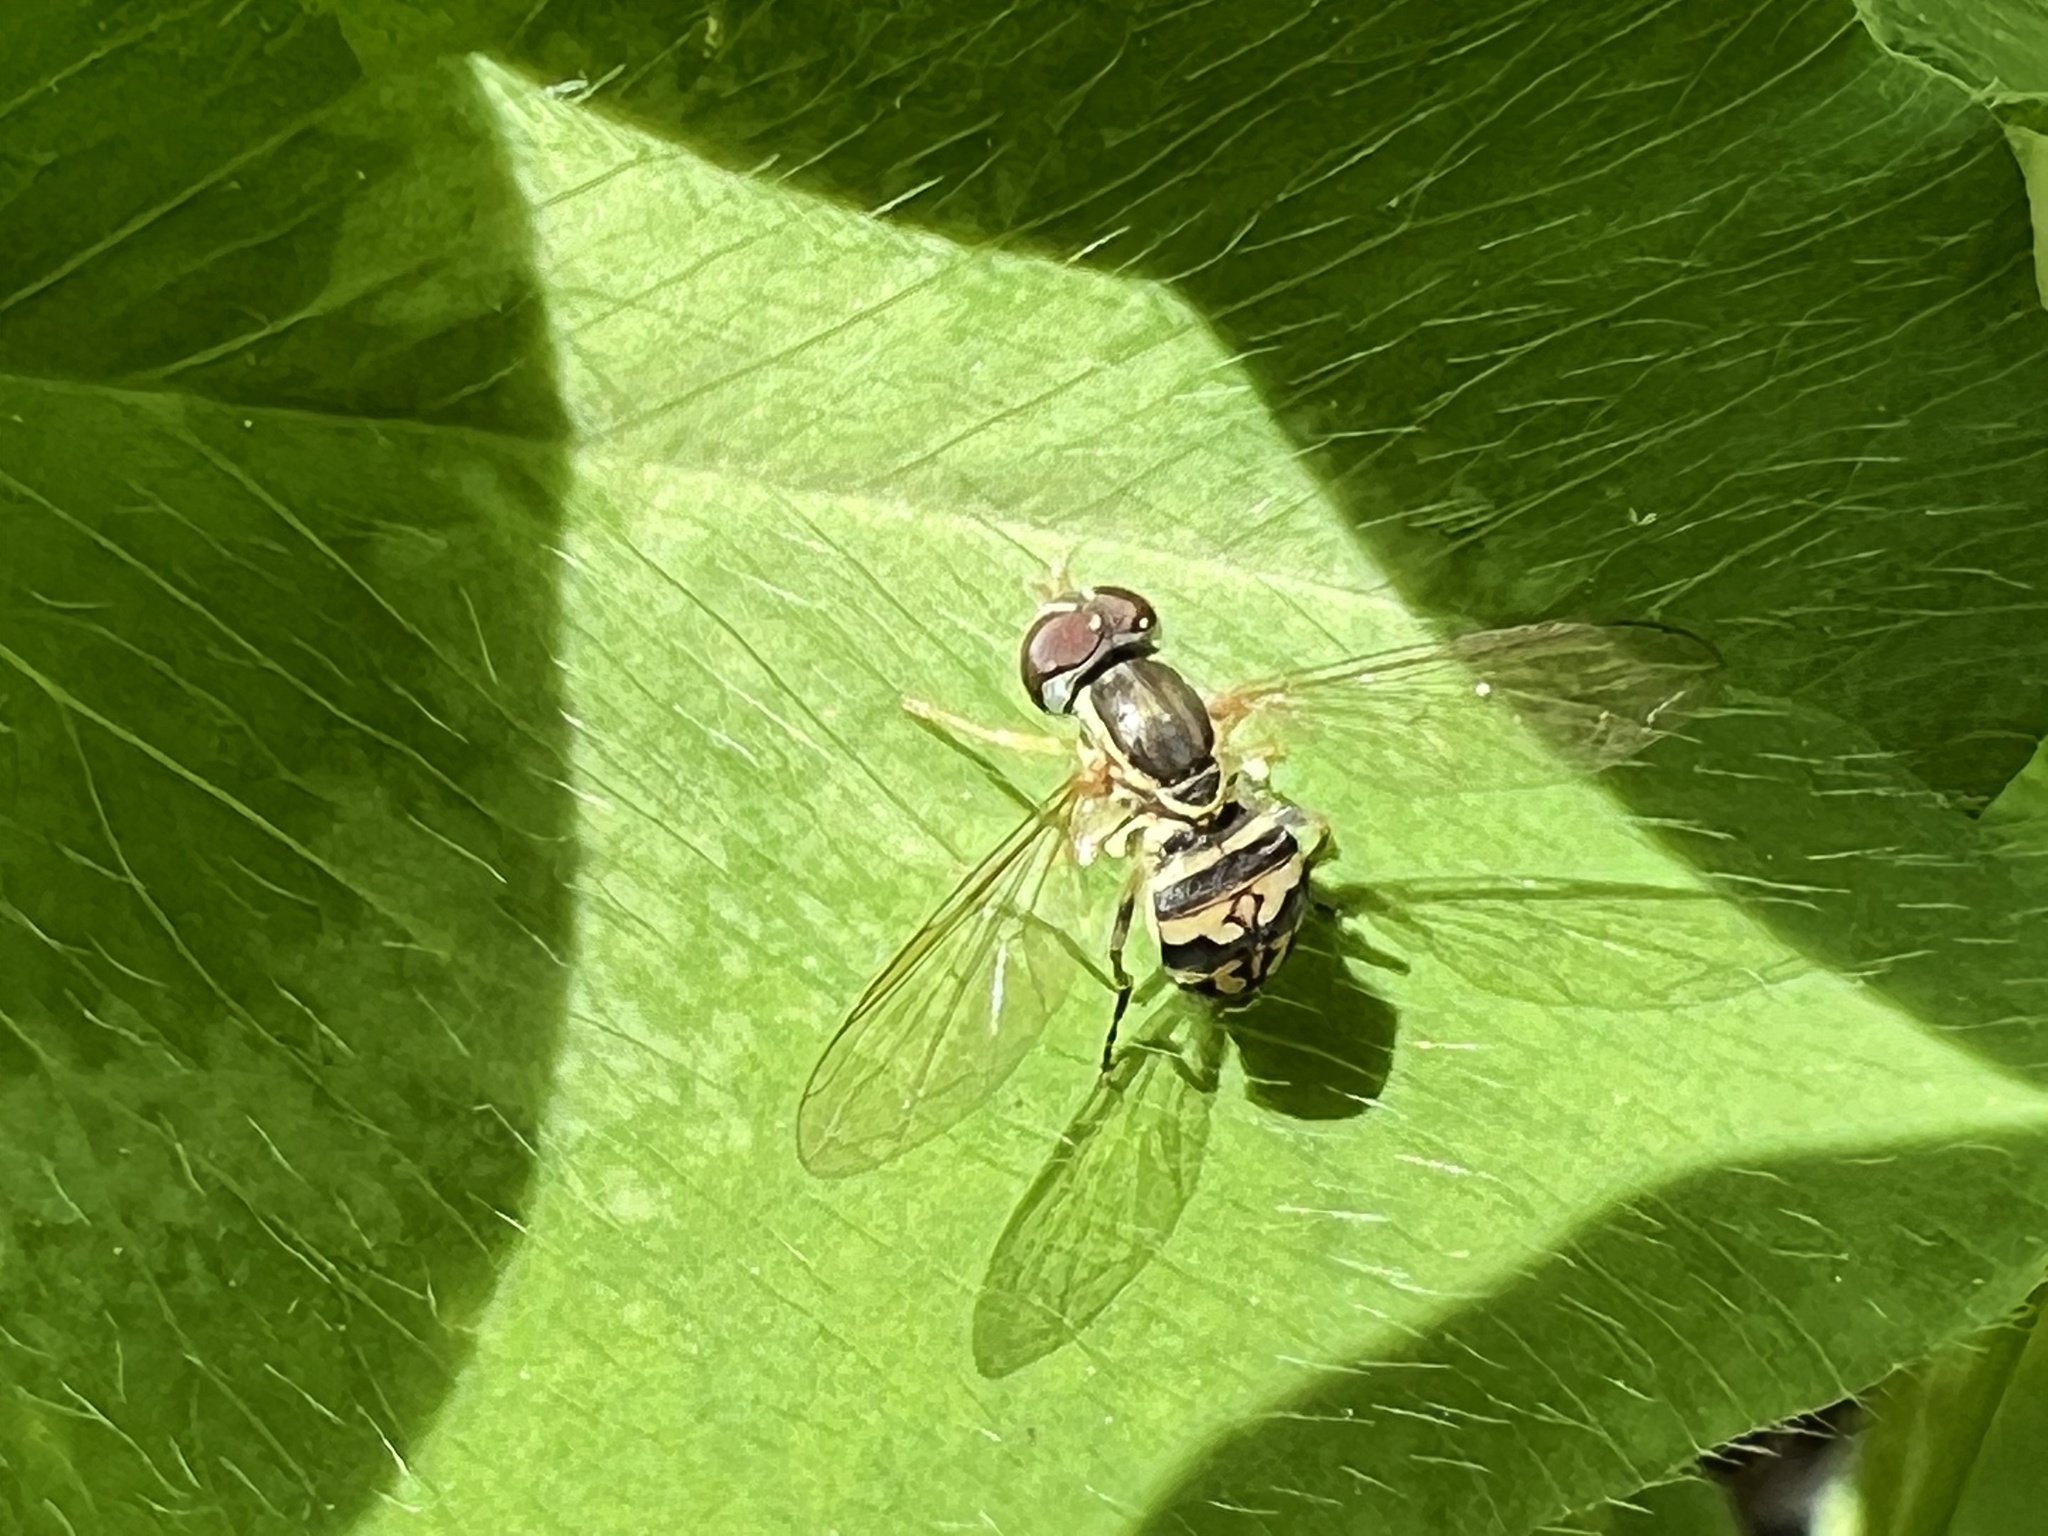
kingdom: Animalia
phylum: Arthropoda
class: Insecta
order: Diptera
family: Syrphidae
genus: Toxomerus
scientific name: Toxomerus geminatus
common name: Eastern calligrapher
